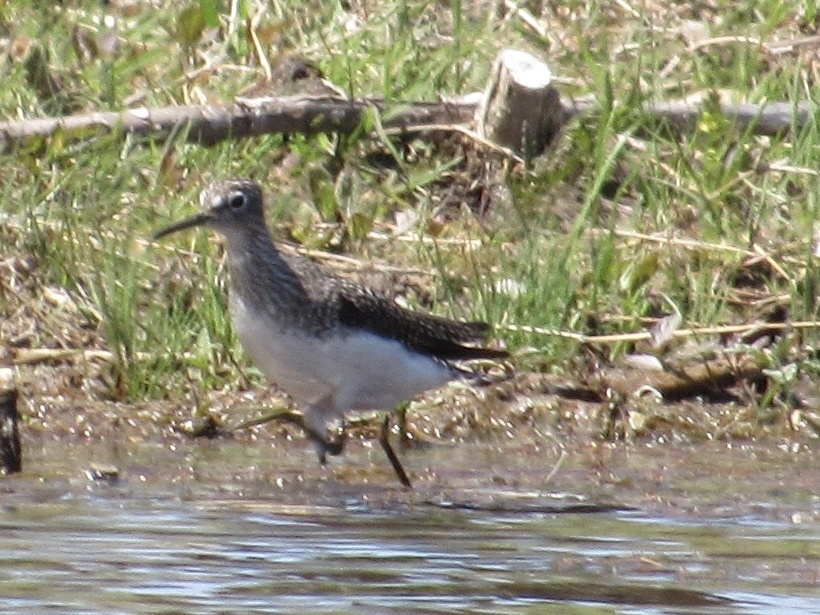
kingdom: Animalia
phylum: Chordata
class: Aves
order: Charadriiformes
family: Scolopacidae
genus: Tringa
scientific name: Tringa solitaria
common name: Solitary sandpiper
